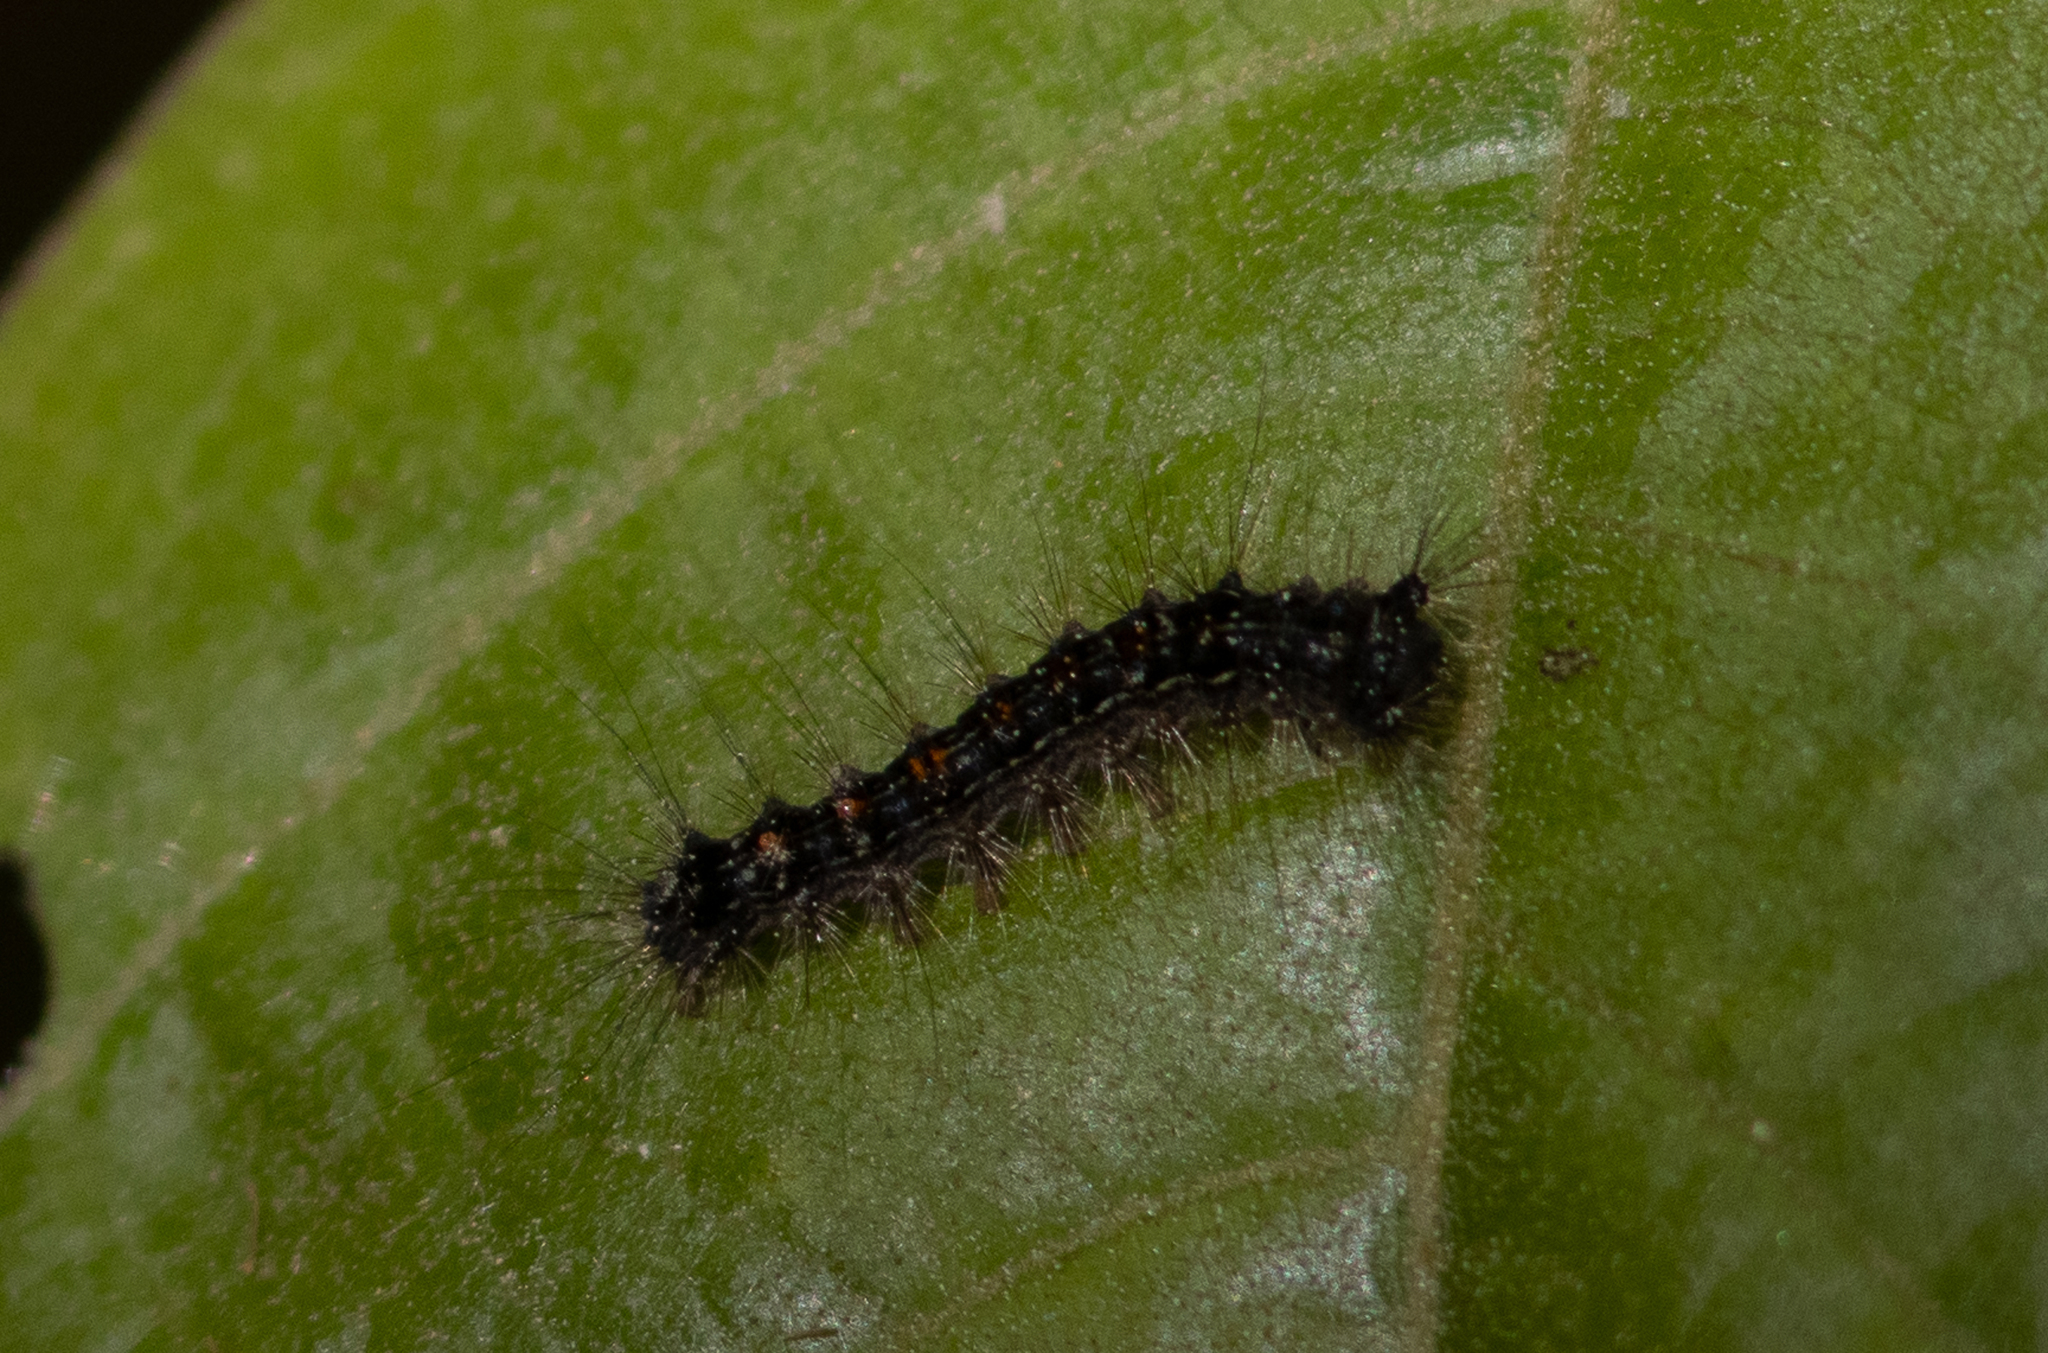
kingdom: Animalia
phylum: Arthropoda
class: Insecta
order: Lepidoptera
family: Erebidae
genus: Lymantria
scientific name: Lymantria dispar
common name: Gypsy moth
